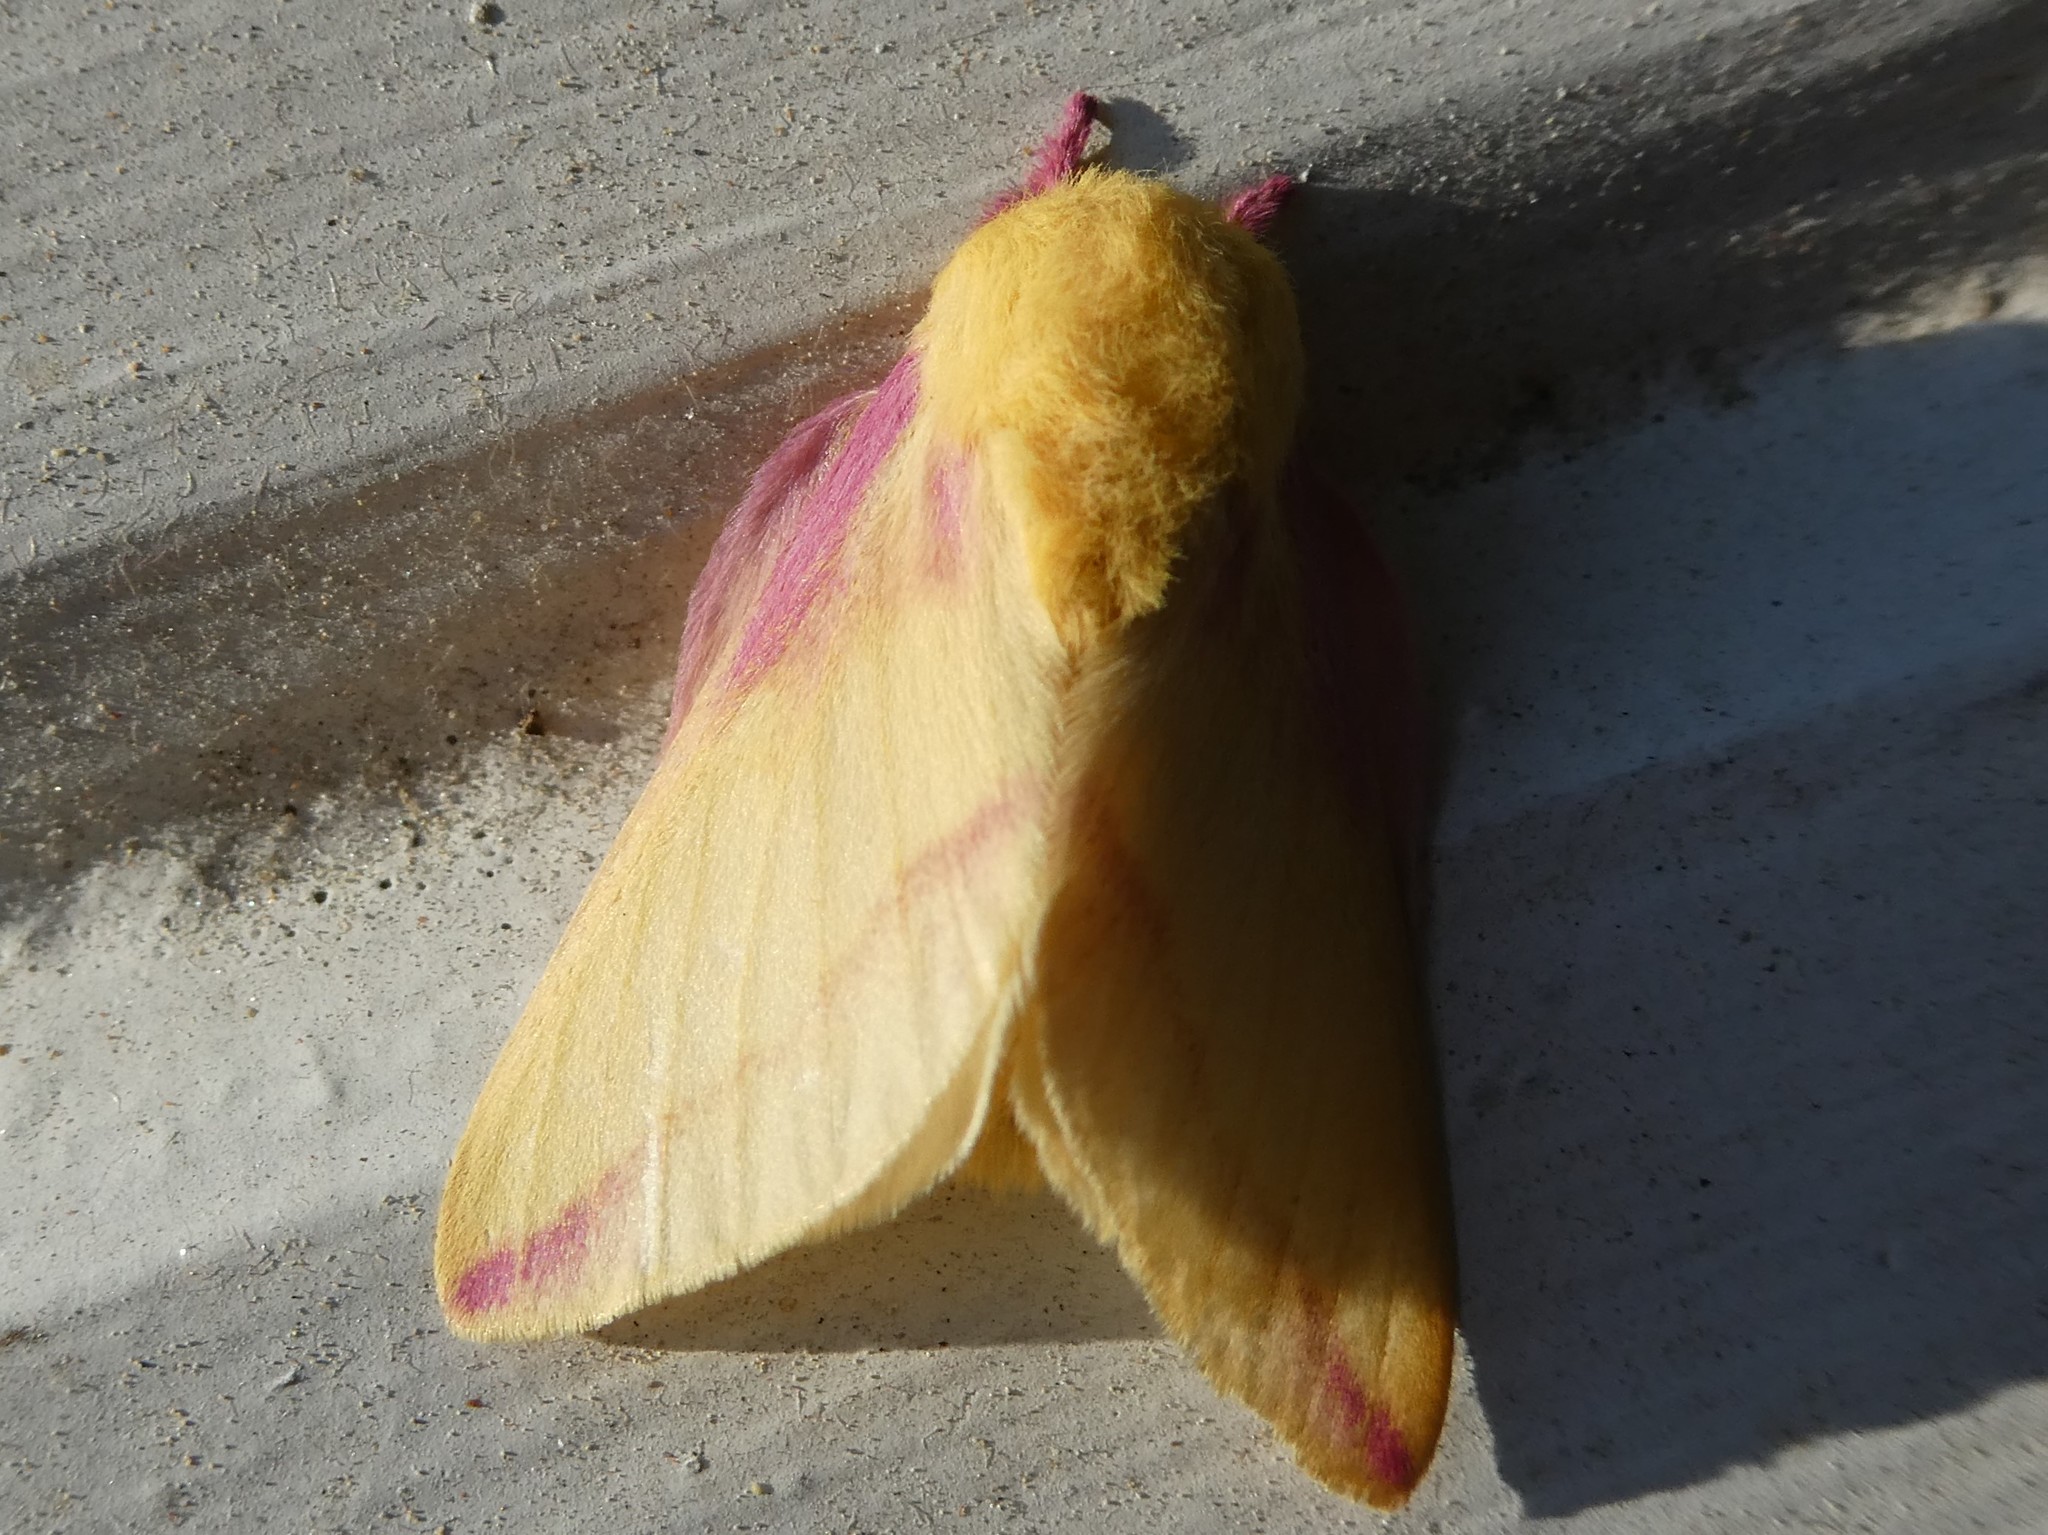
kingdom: Animalia
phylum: Arthropoda
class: Insecta
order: Lepidoptera
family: Saturniidae
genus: Dryocampa
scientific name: Dryocampa rubicunda
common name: Rosy maple moth
